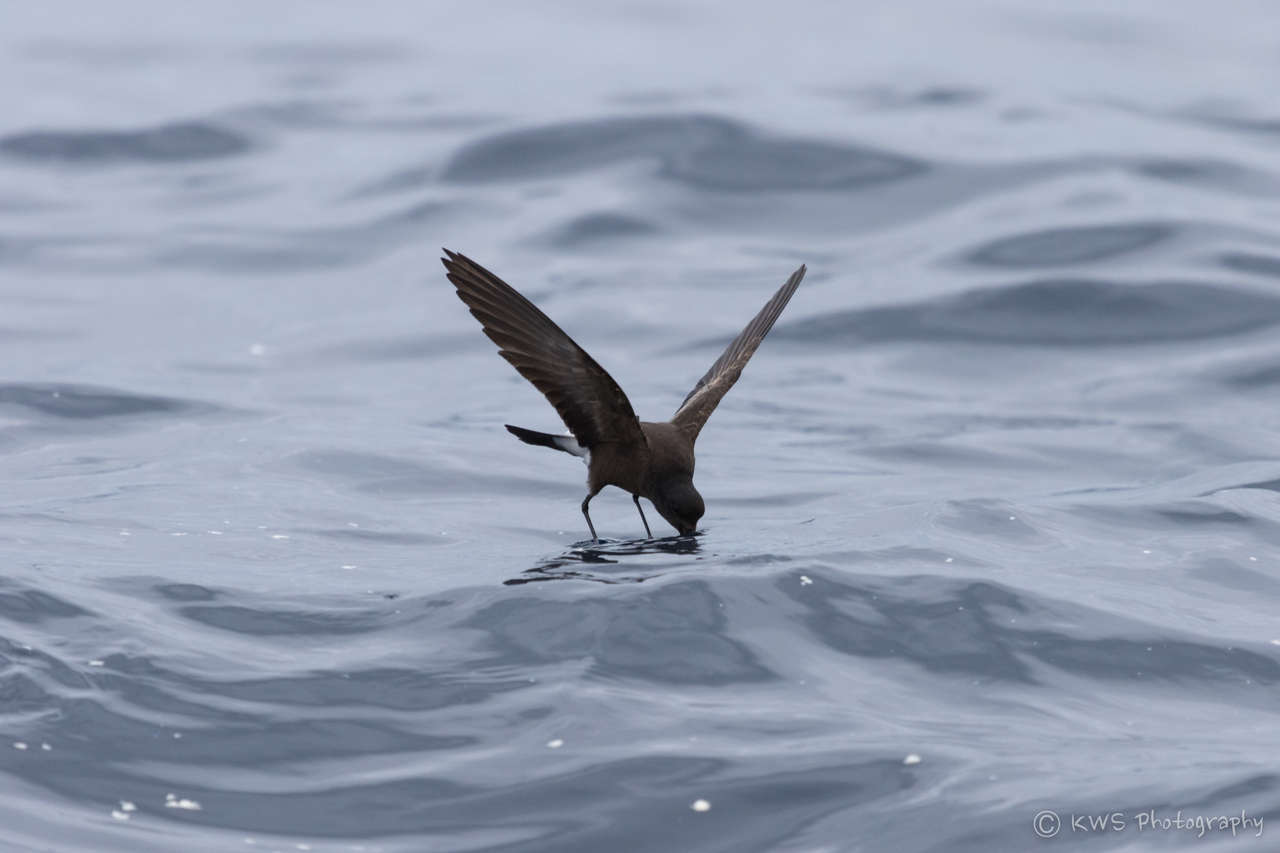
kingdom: Animalia
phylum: Chordata
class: Aves
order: Procellariiformes
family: Hydrobatidae
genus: Oceanites
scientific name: Oceanites oceanicus
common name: Wilson's storm petrel
